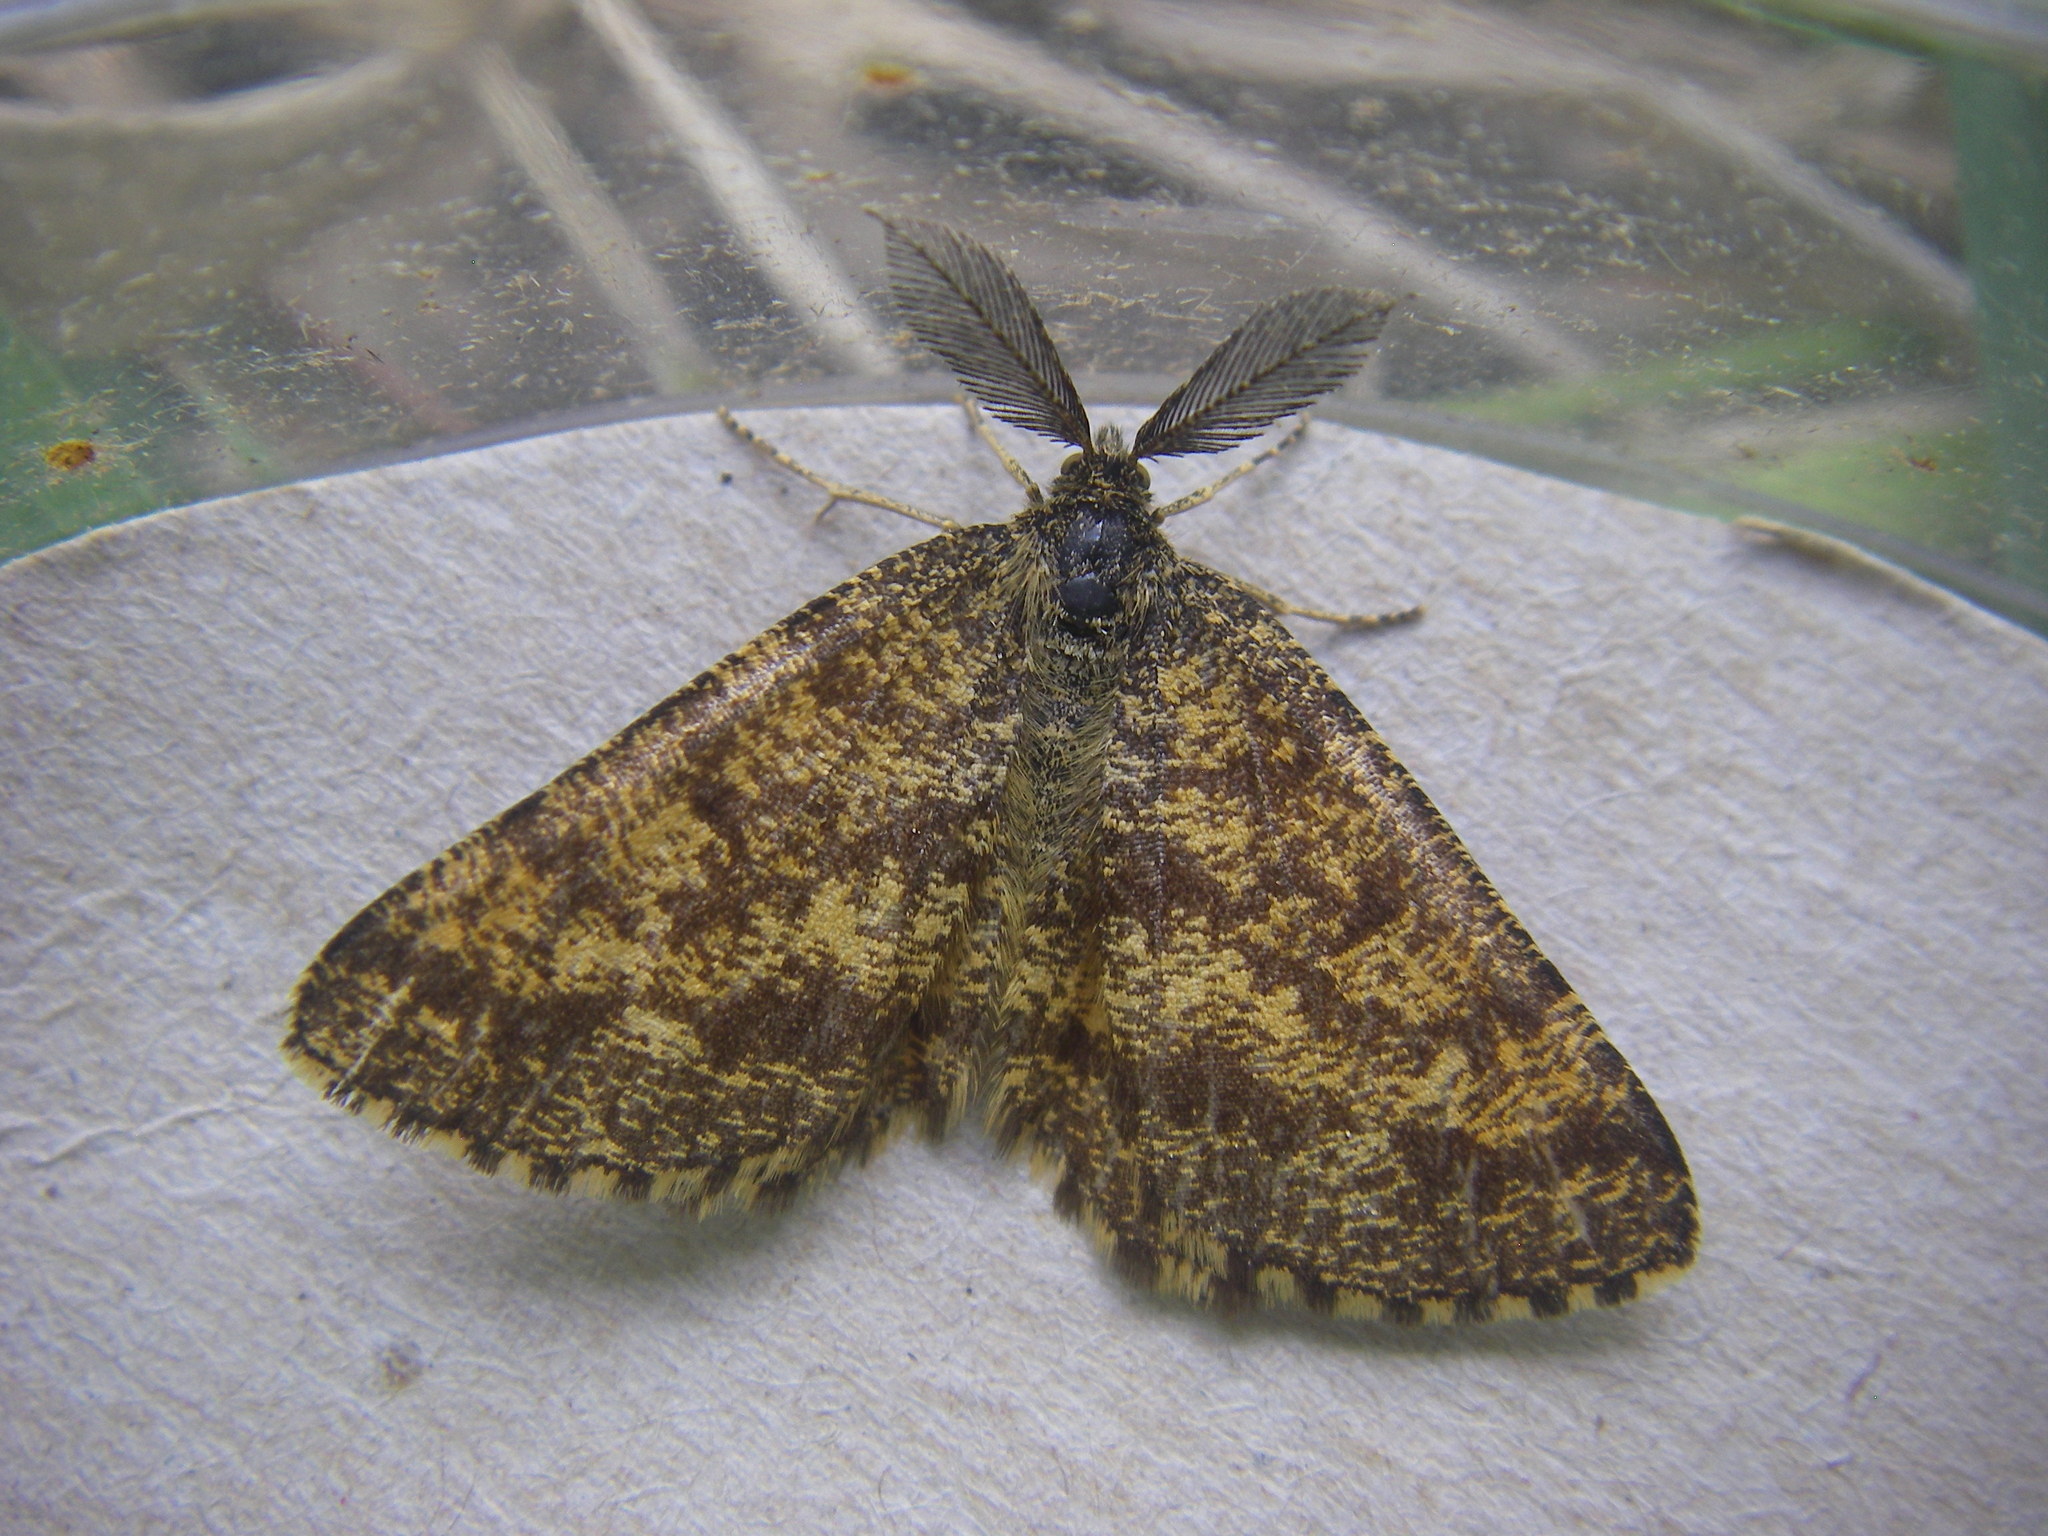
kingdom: Animalia
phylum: Arthropoda
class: Insecta
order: Lepidoptera
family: Geometridae
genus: Ematurga
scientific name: Ematurga atomaria
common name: Common heath
